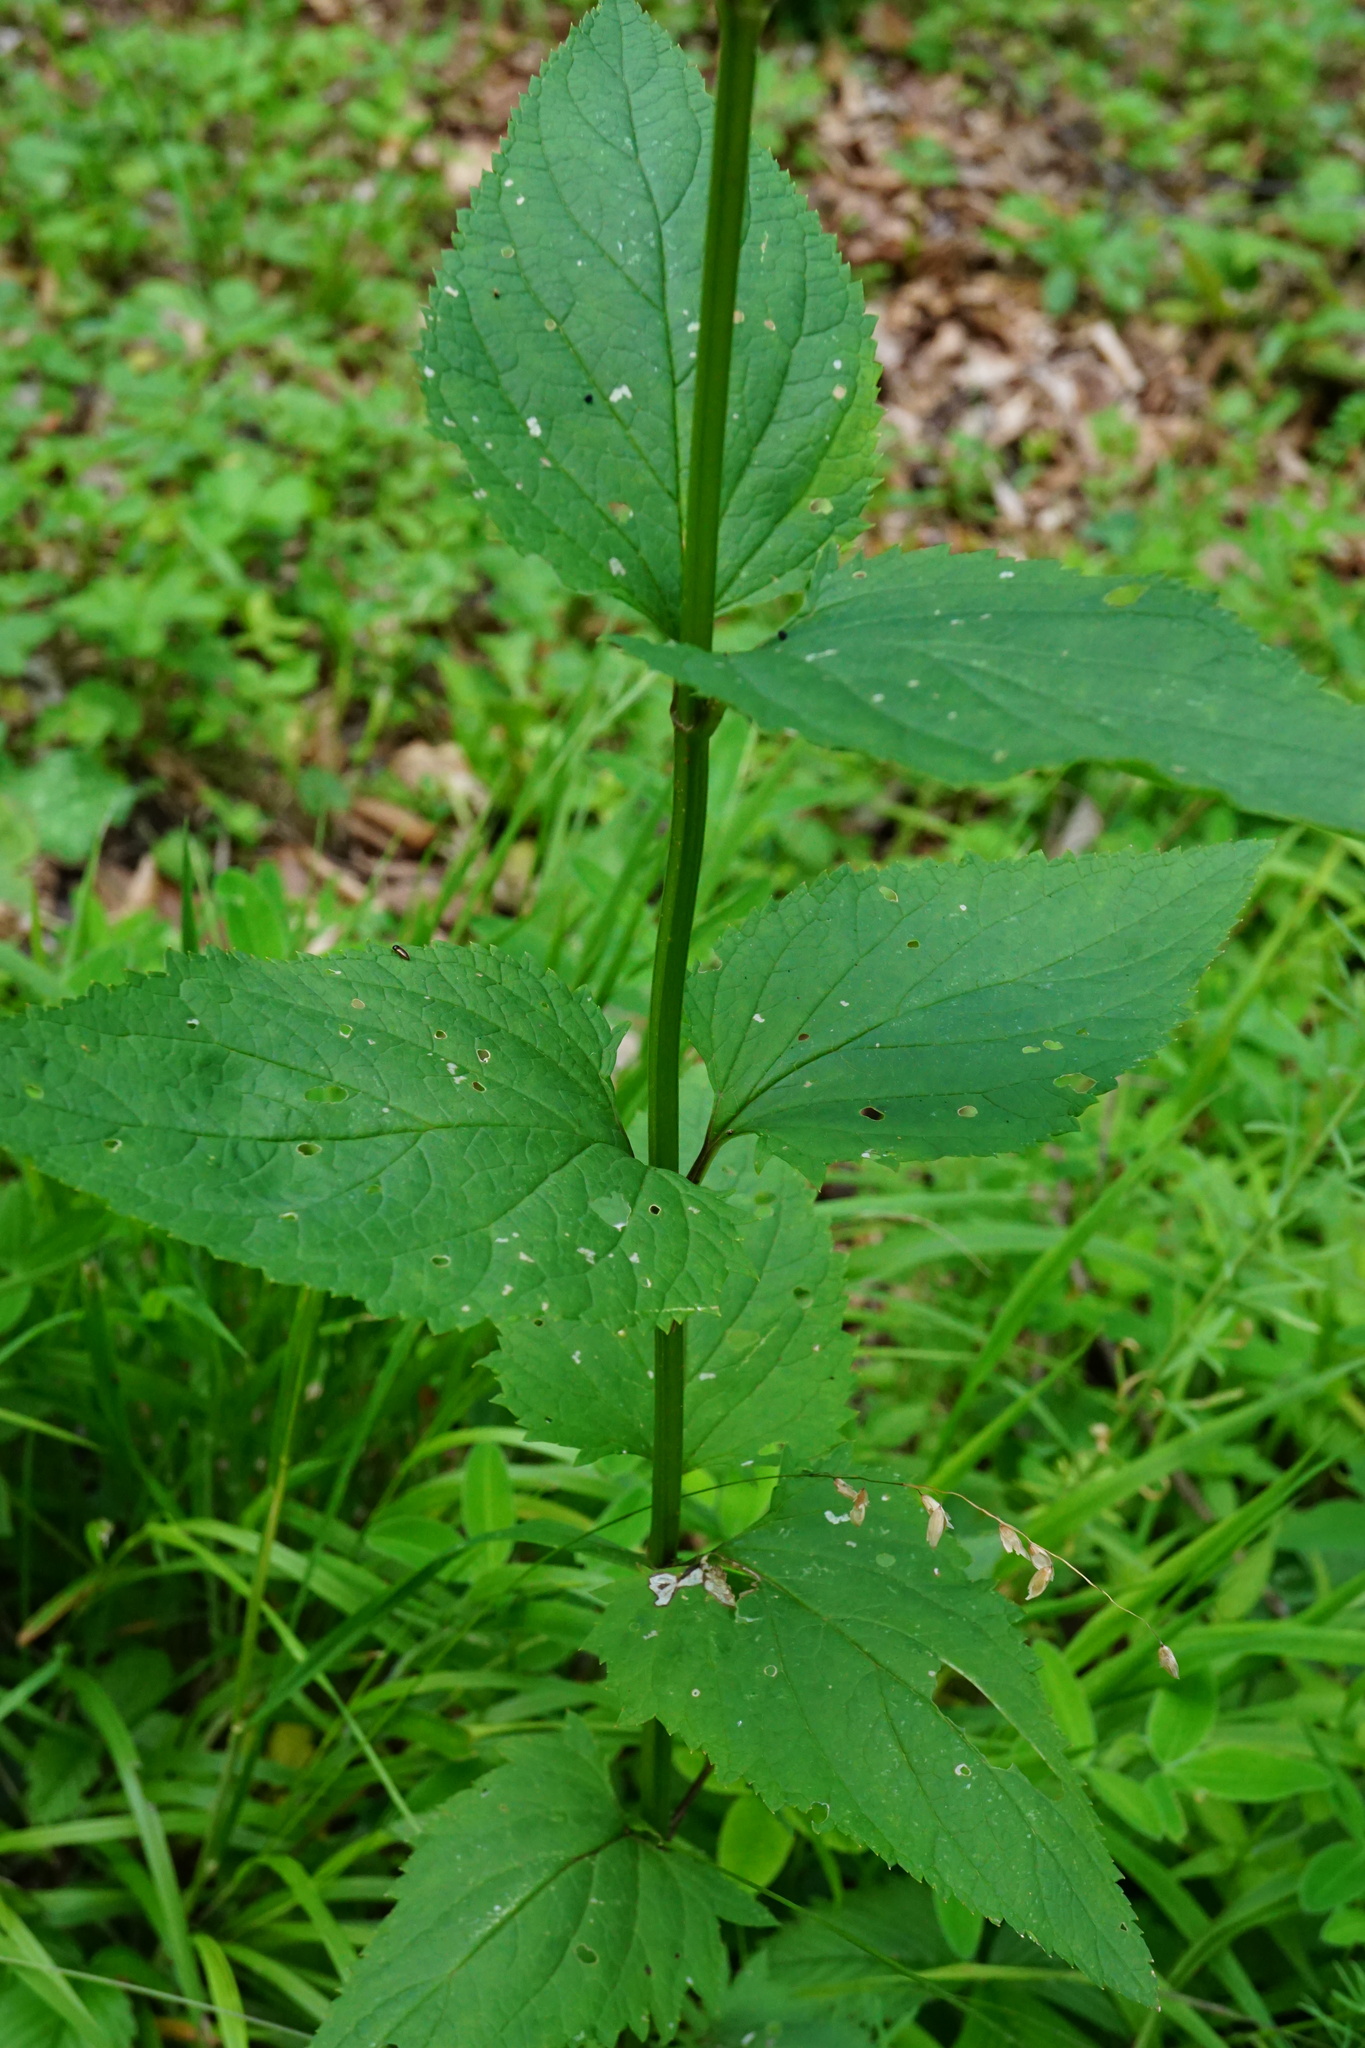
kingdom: Plantae
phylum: Tracheophyta
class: Magnoliopsida
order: Lamiales
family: Scrophulariaceae
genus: Scrophularia
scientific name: Scrophularia nodosa
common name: Common figwort
